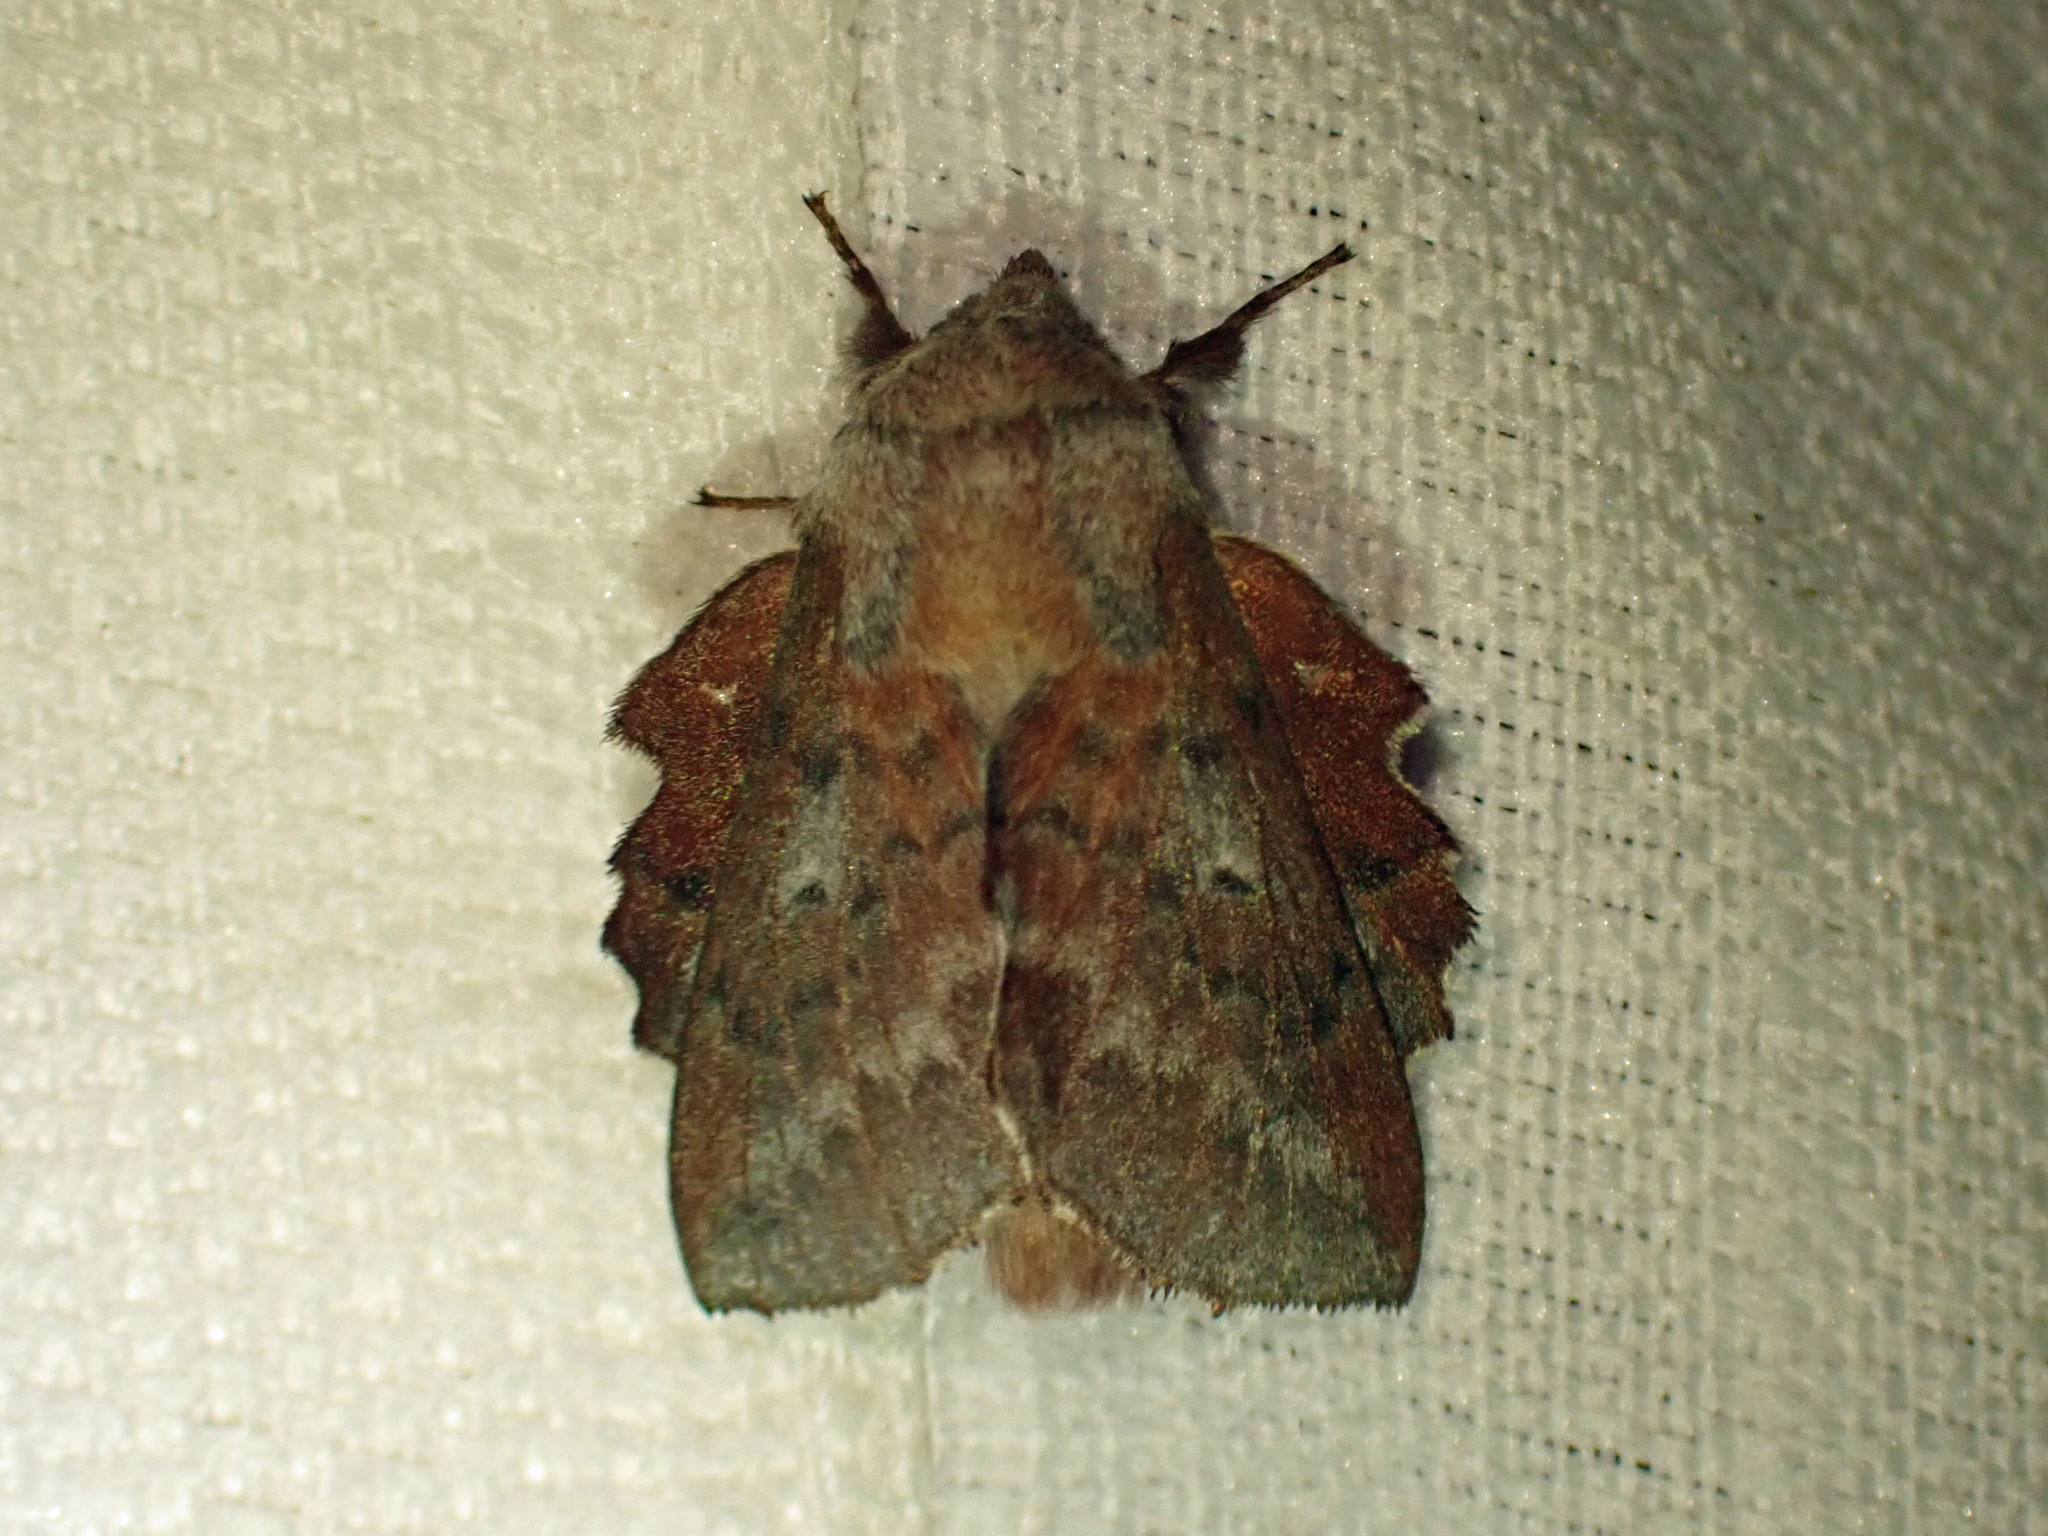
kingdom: Animalia
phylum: Arthropoda
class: Insecta
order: Lepidoptera
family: Lasiocampidae
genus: Phyllodesma
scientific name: Phyllodesma americana
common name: American lappet moth
